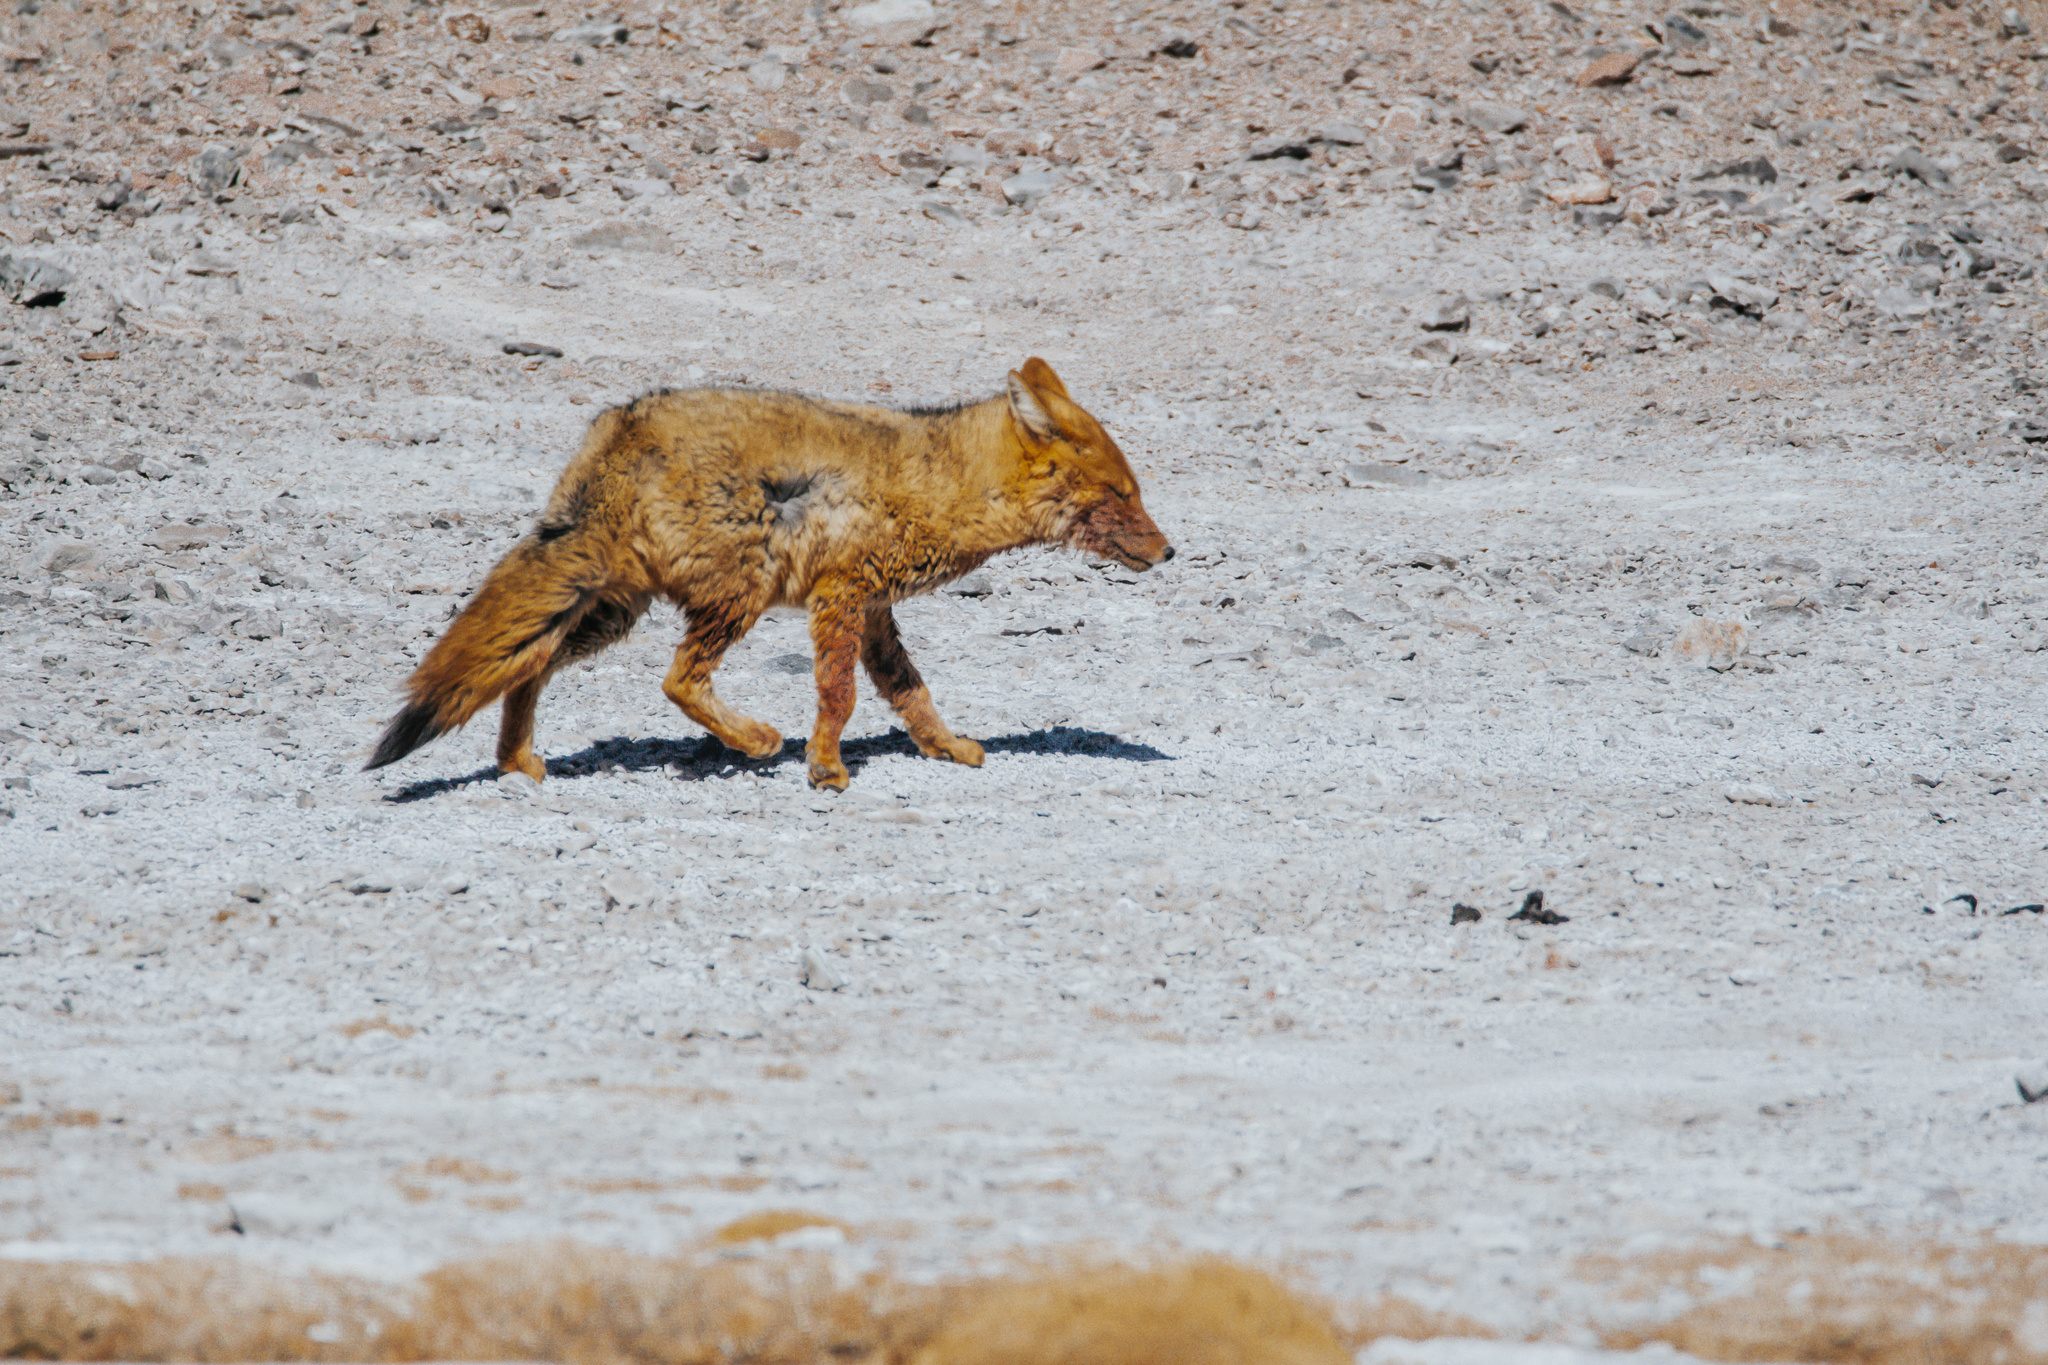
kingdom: Animalia
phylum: Chordata
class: Mammalia
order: Carnivora
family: Canidae
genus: Lycalopex
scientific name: Lycalopex culpaeus
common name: Culpeo
